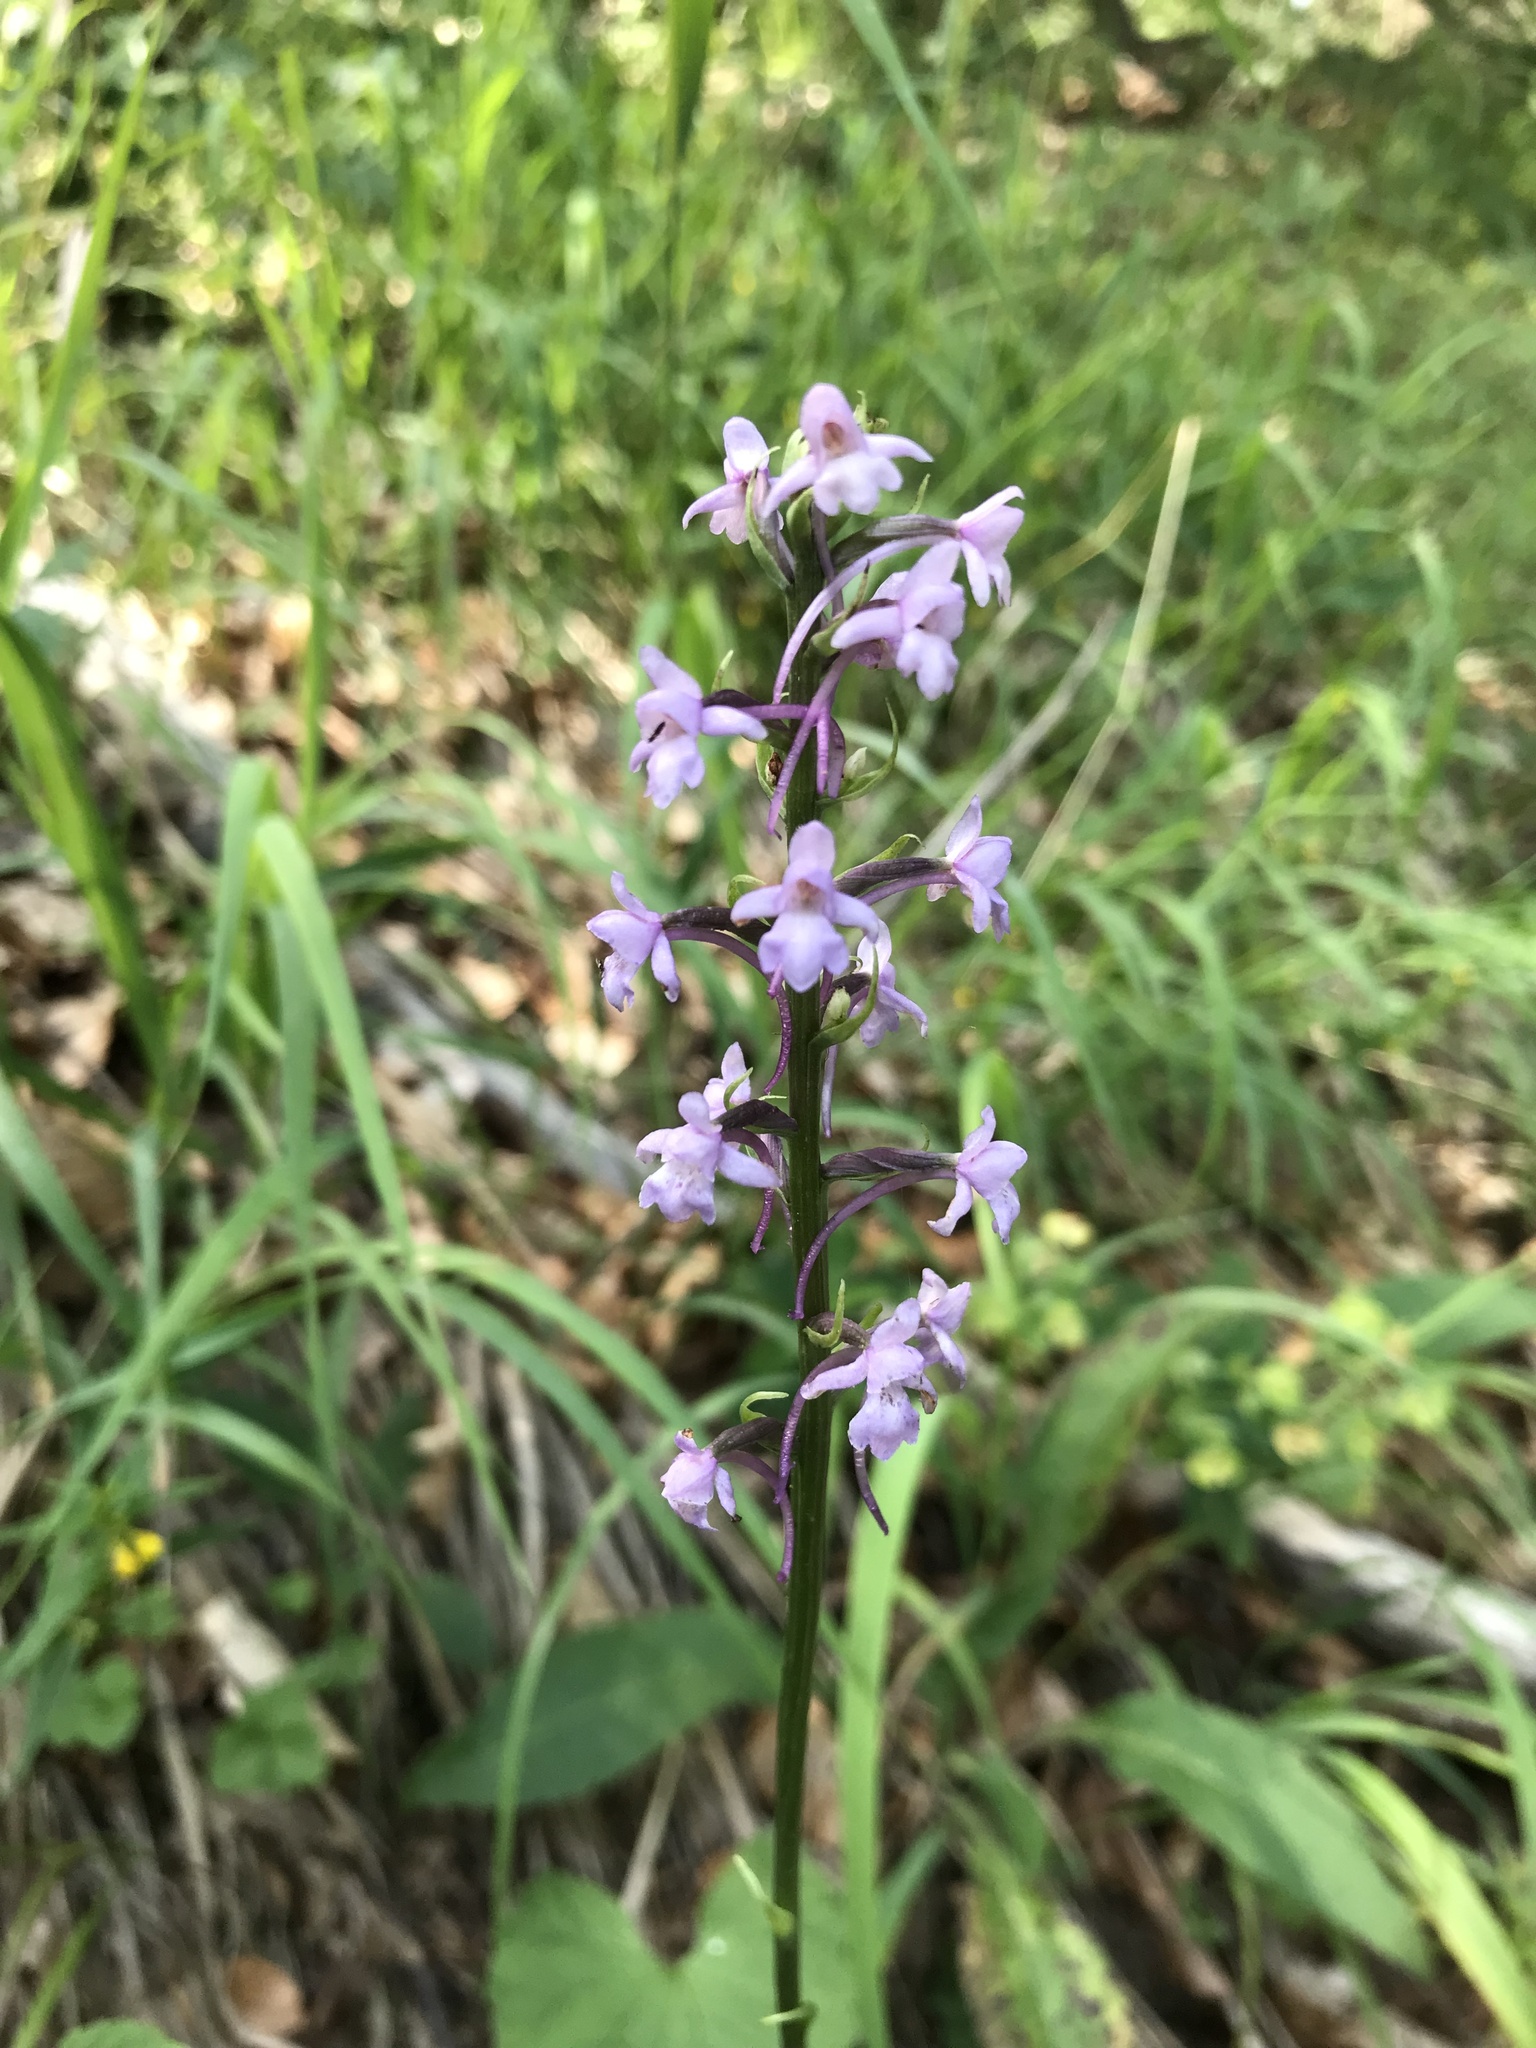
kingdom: Plantae
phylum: Tracheophyta
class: Liliopsida
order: Asparagales
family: Orchidaceae
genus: Gymnadenia
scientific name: Gymnadenia conopsea
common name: Fragrant orchid
